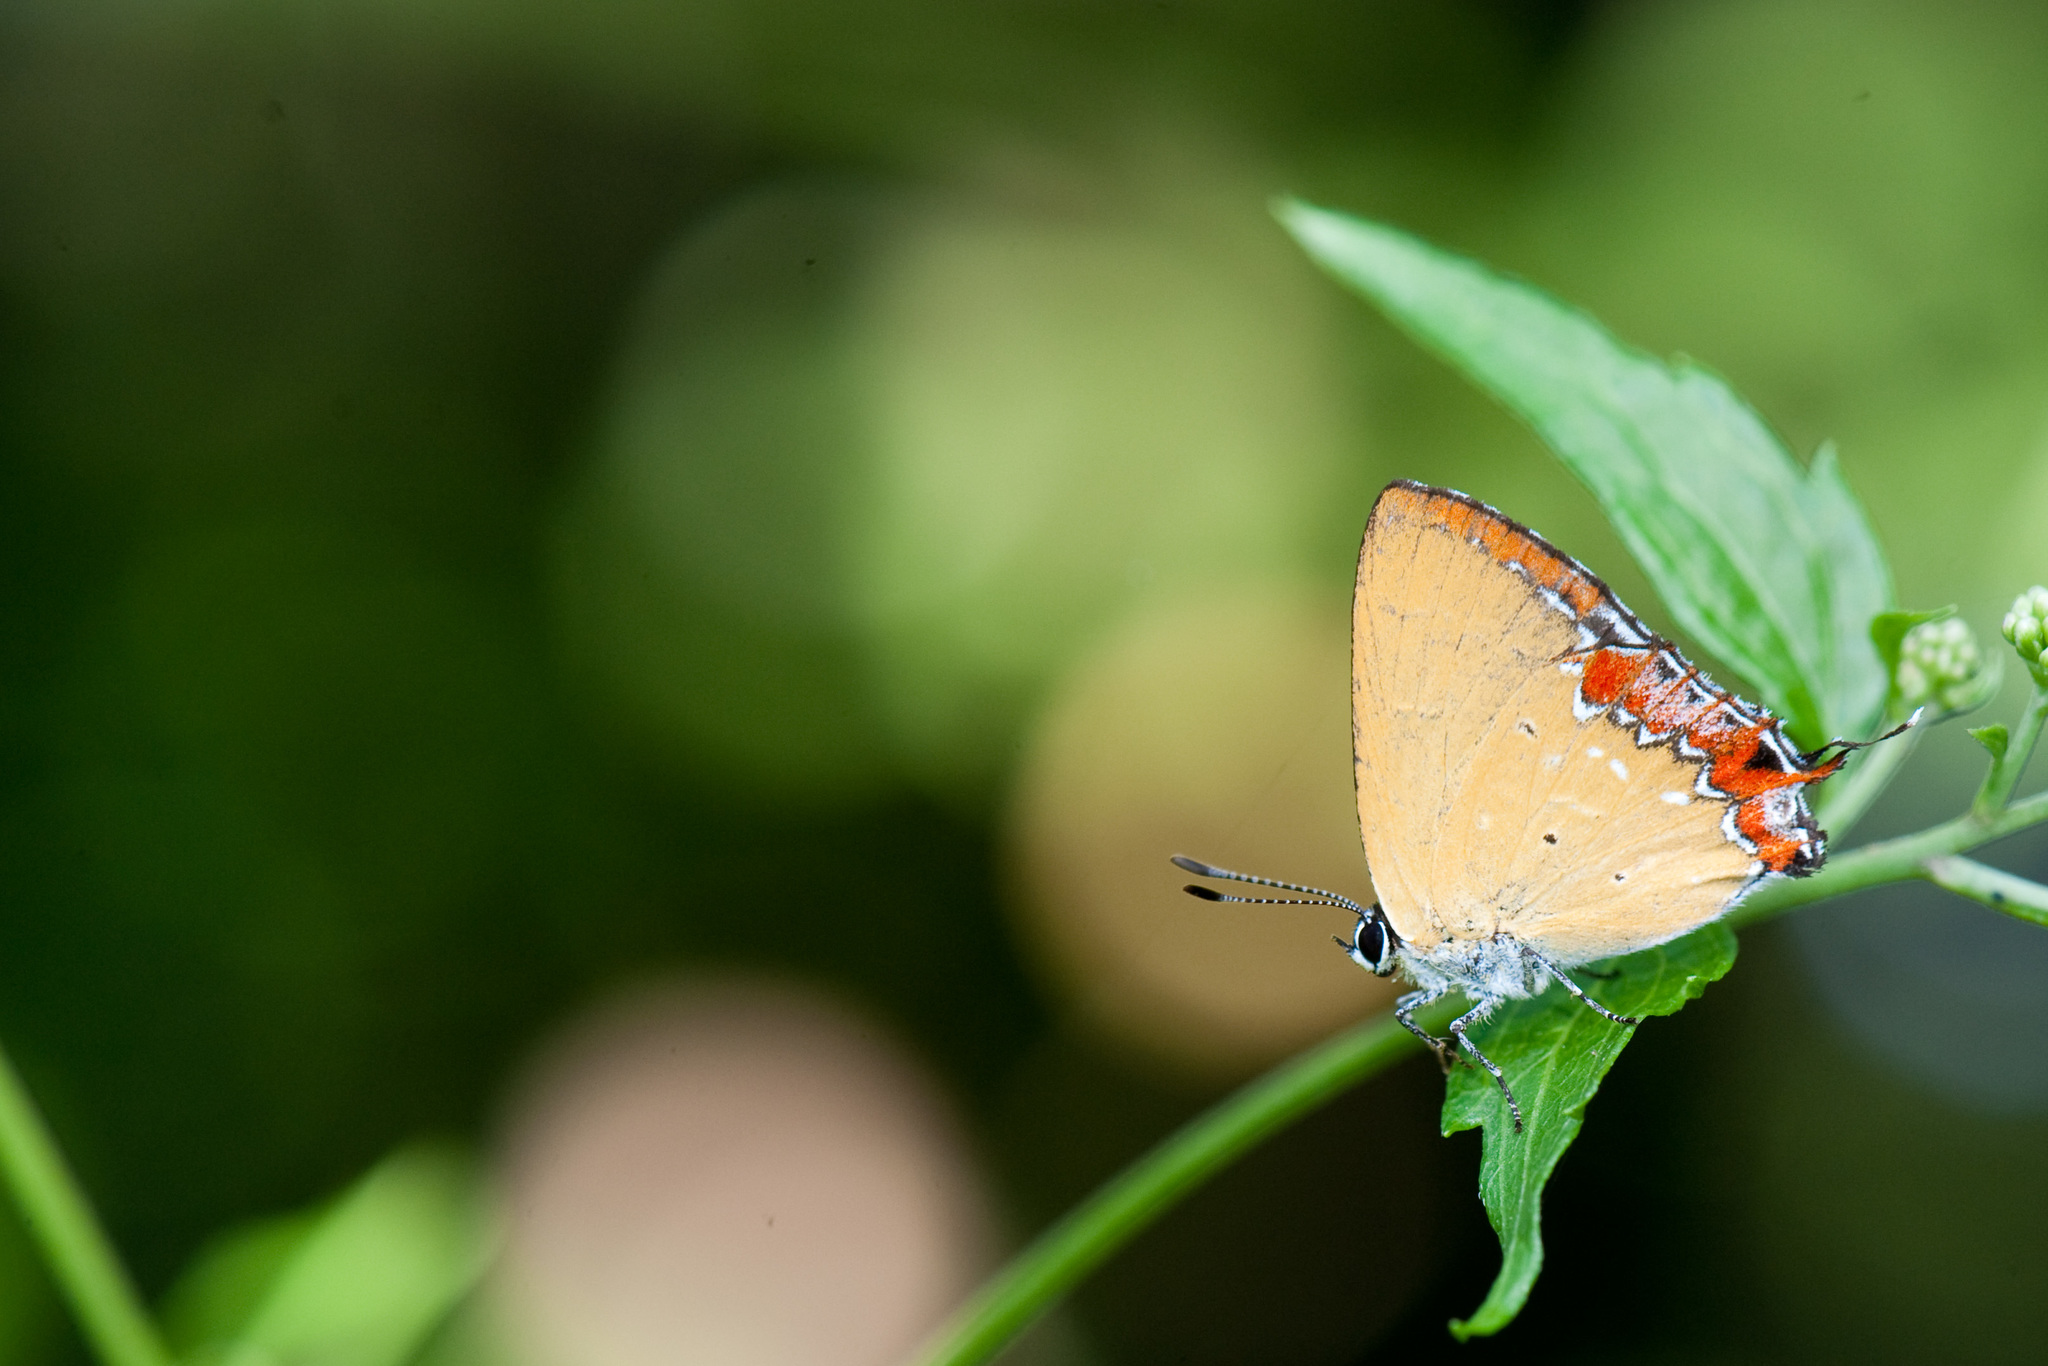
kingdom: Animalia
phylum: Arthropoda
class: Insecta
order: Lepidoptera
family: Lycaenidae
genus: Heliophorus
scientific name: Heliophorus ila
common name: Restricted purple sapphire
